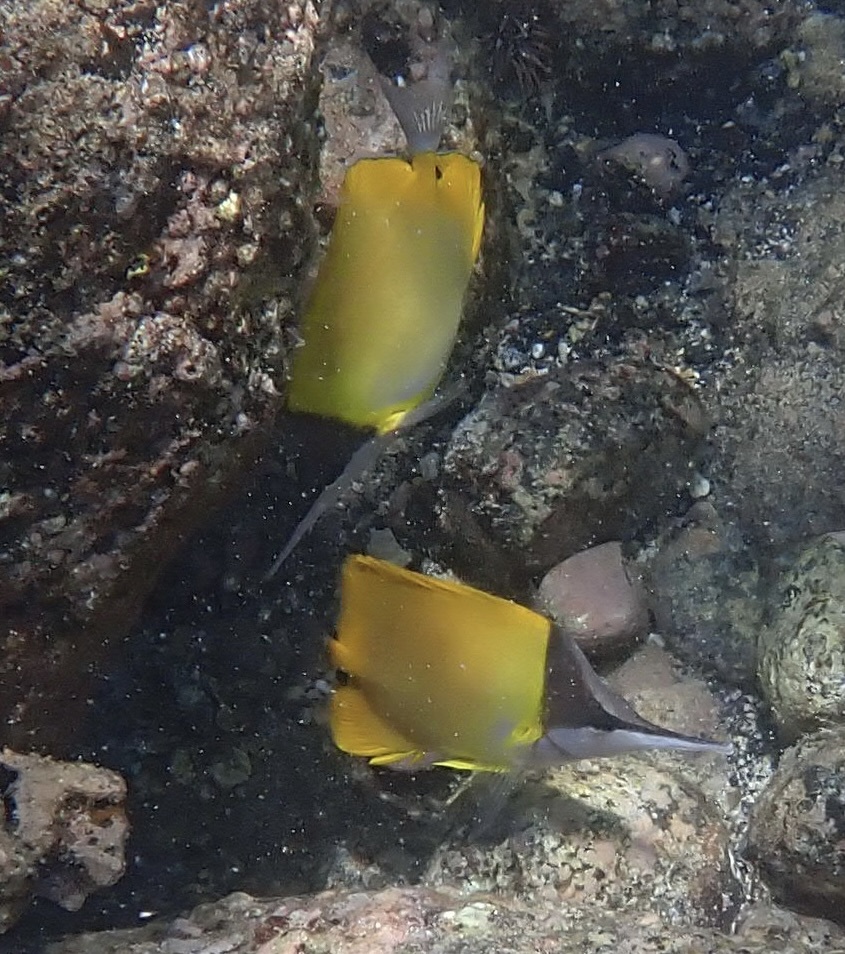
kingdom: Animalia
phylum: Chordata
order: Perciformes
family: Chaetodontidae
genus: Forcipiger
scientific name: Forcipiger flavissimus
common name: Forcepsfish
